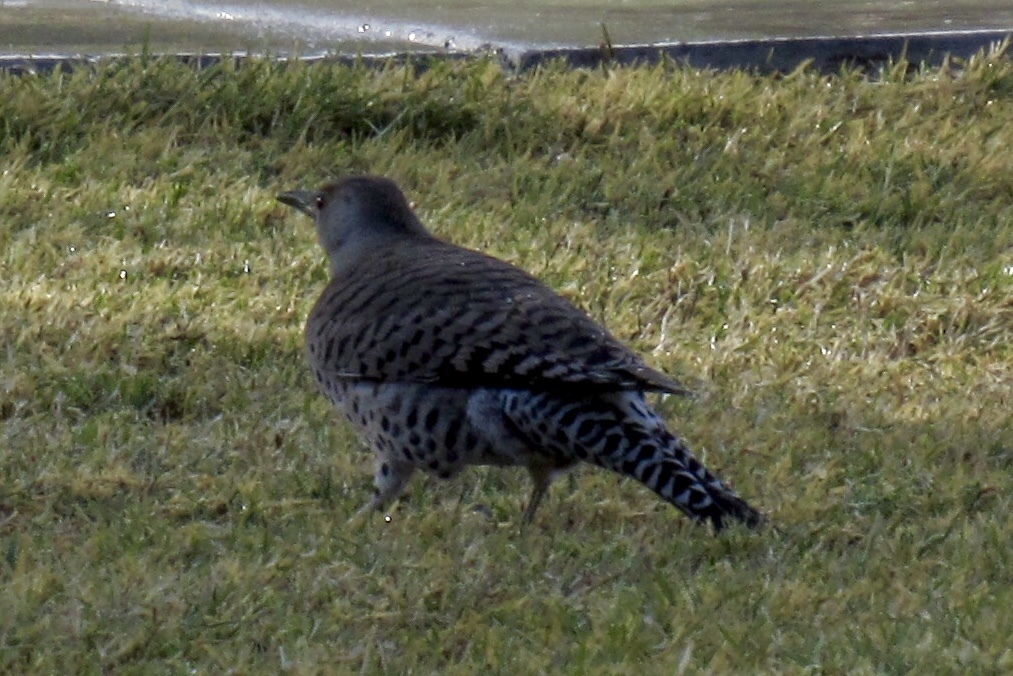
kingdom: Animalia
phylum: Chordata
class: Aves
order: Piciformes
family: Picidae
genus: Colaptes
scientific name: Colaptes auratus
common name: Northern flicker
